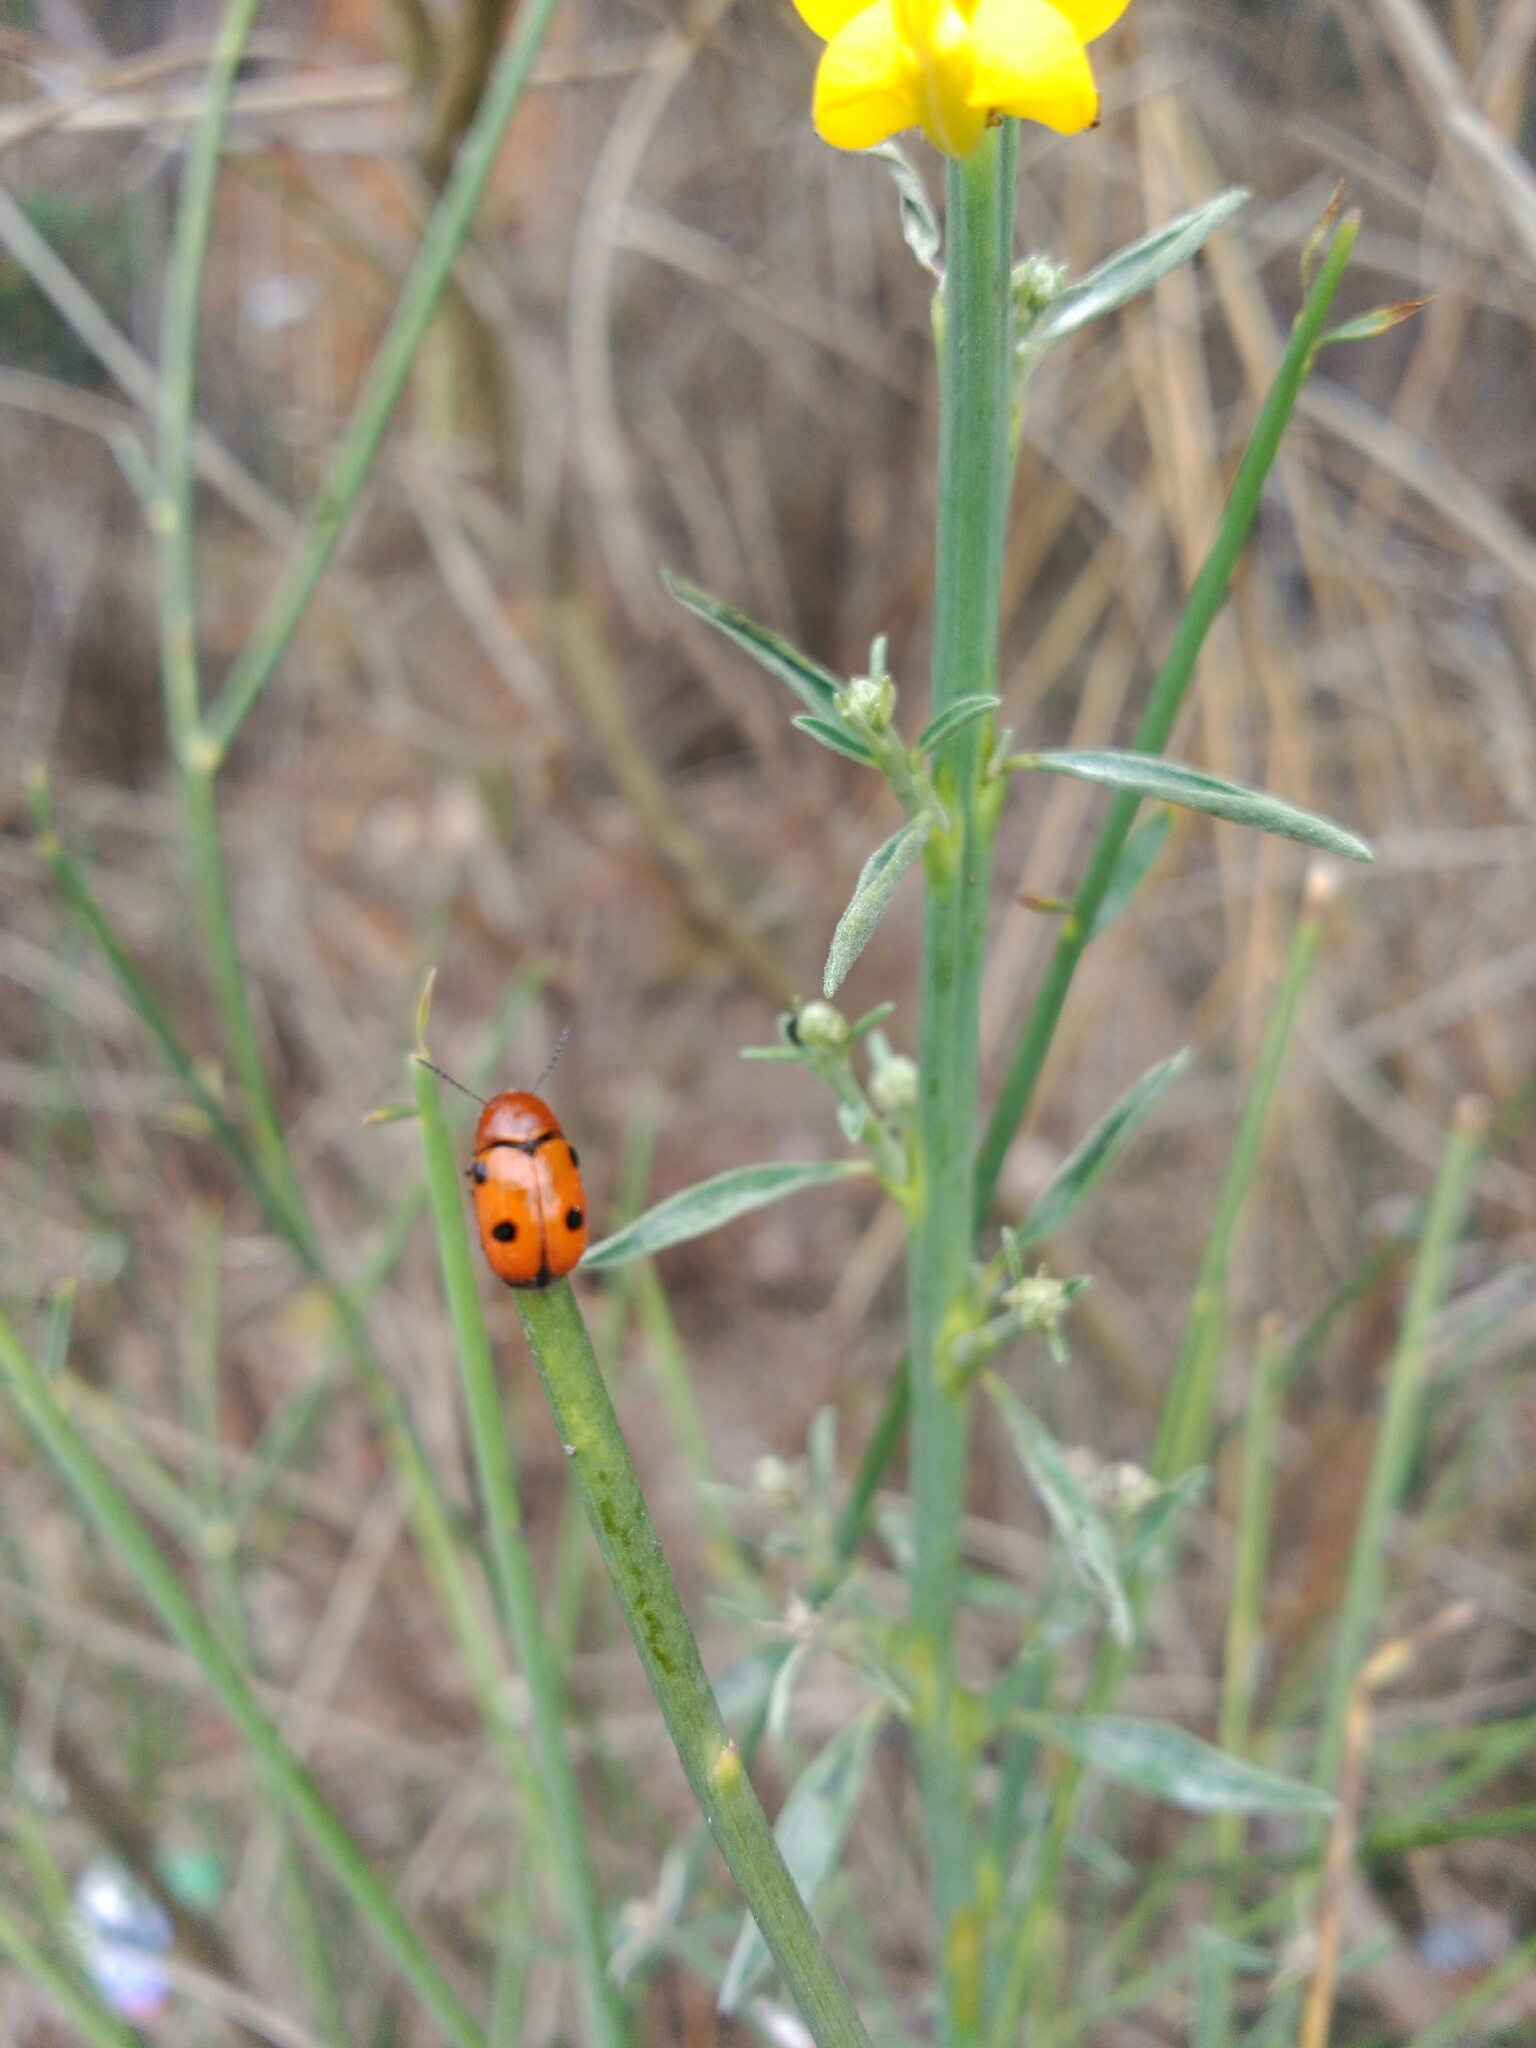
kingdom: Animalia
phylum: Arthropoda
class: Insecta
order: Coleoptera
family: Chrysomelidae
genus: Cryptocephalus
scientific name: Cryptocephalus infirmior
